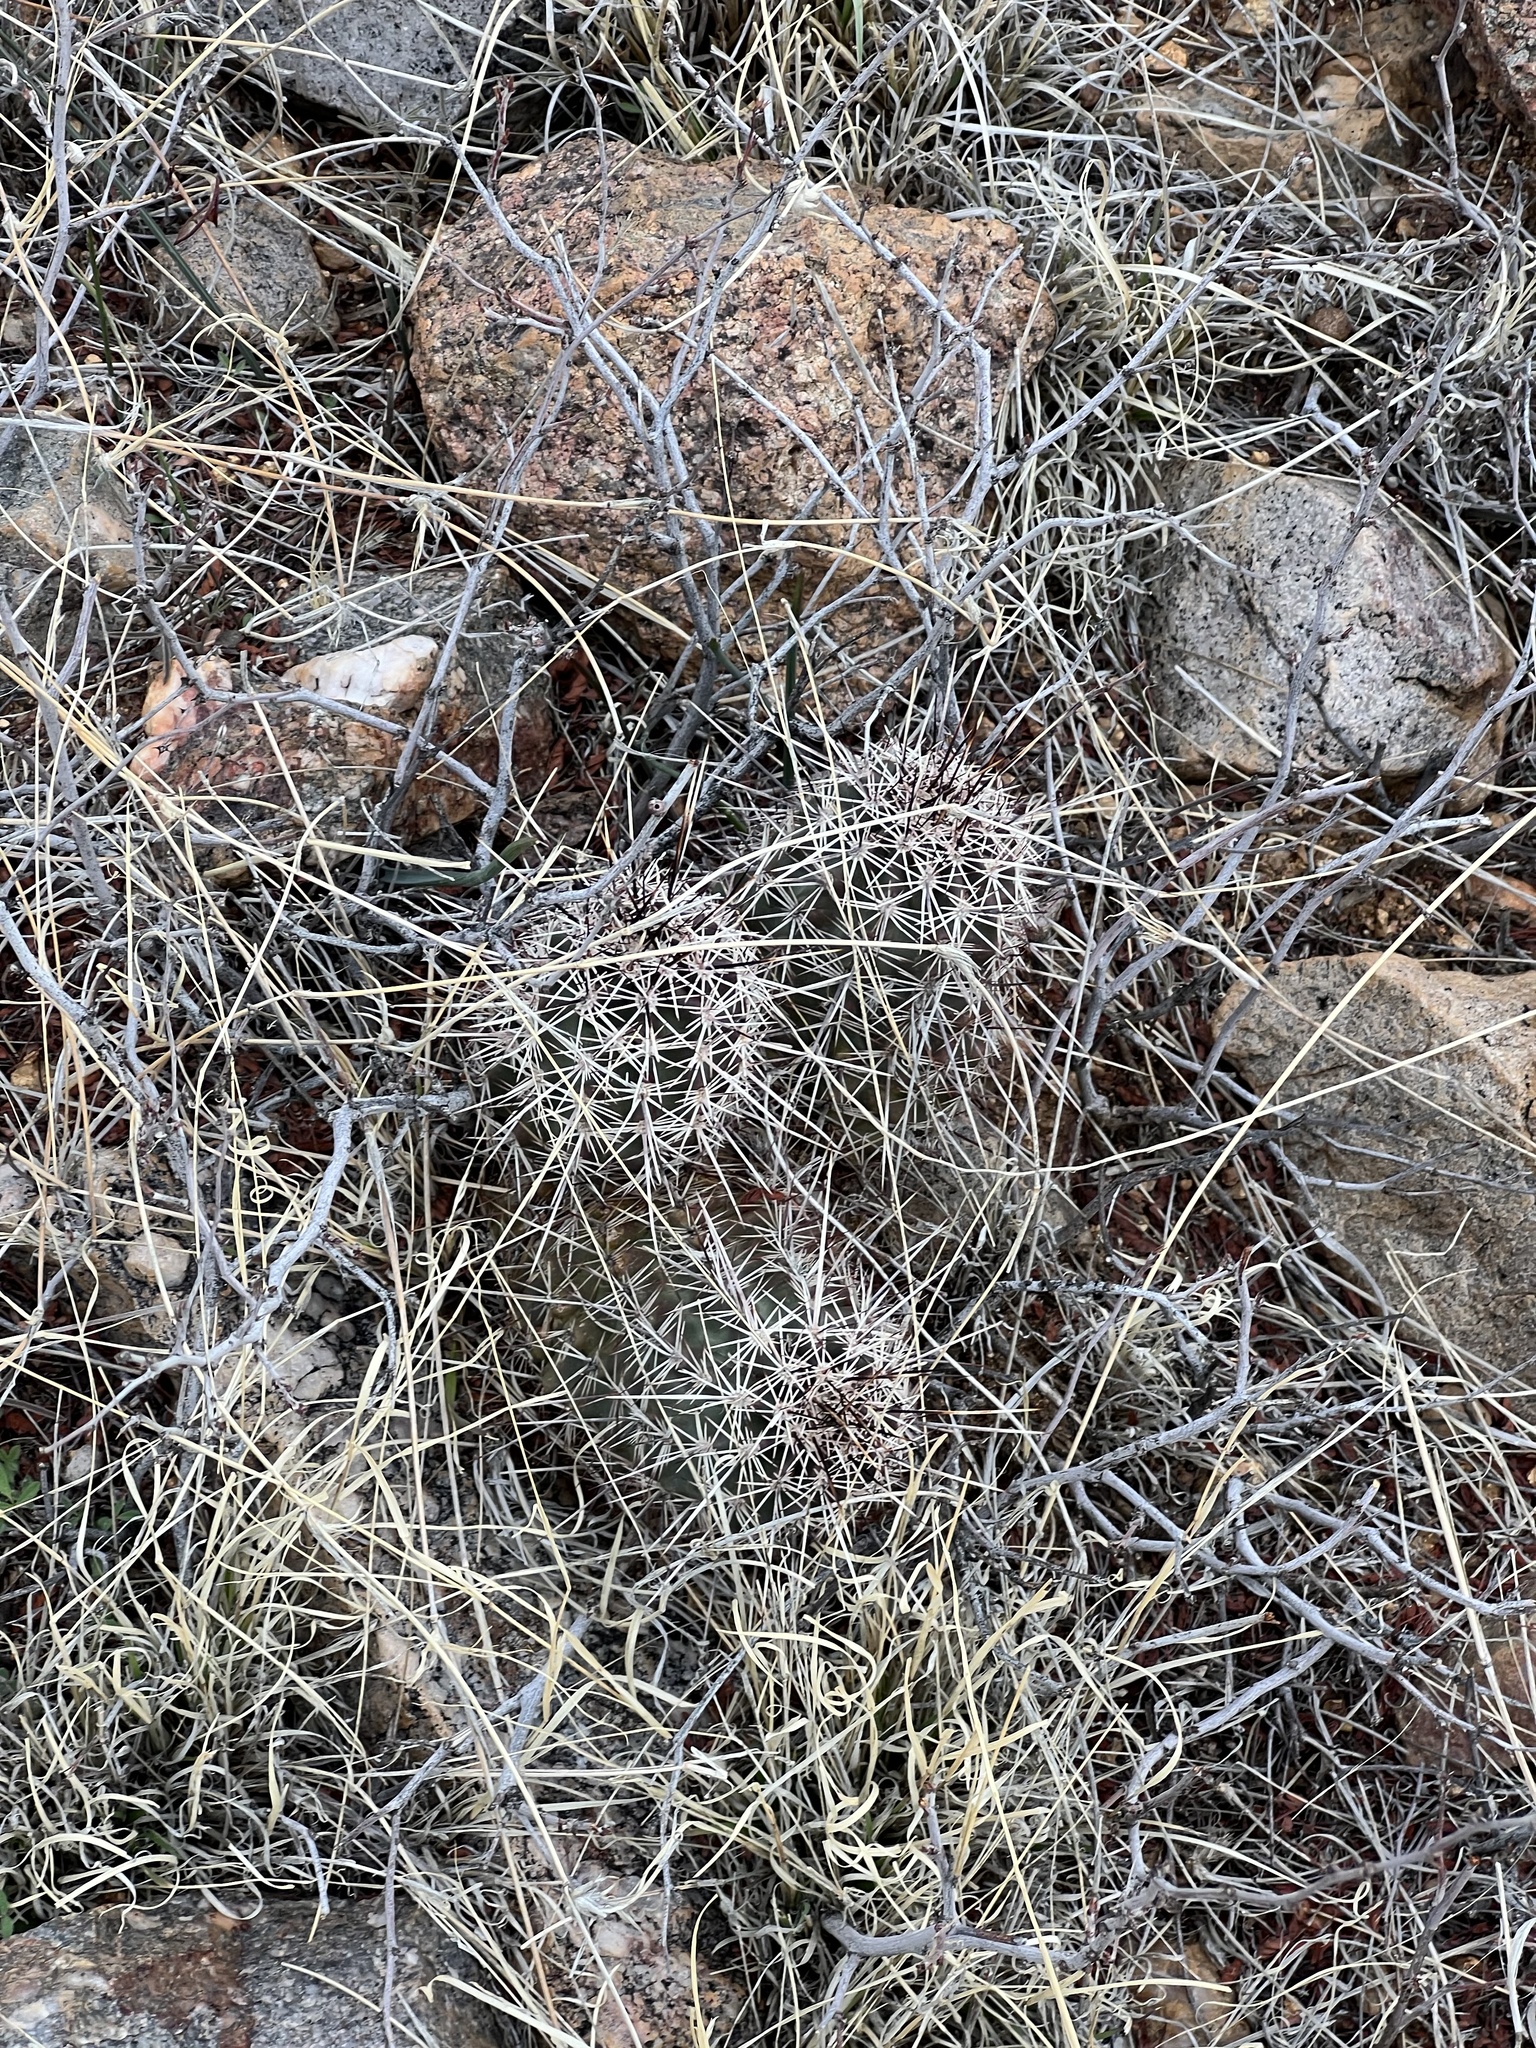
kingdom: Plantae
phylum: Tracheophyta
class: Magnoliopsida
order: Caryophyllales
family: Cactaceae
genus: Echinocereus
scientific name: Echinocereus fasciculatus
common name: Bundle hedgehog
